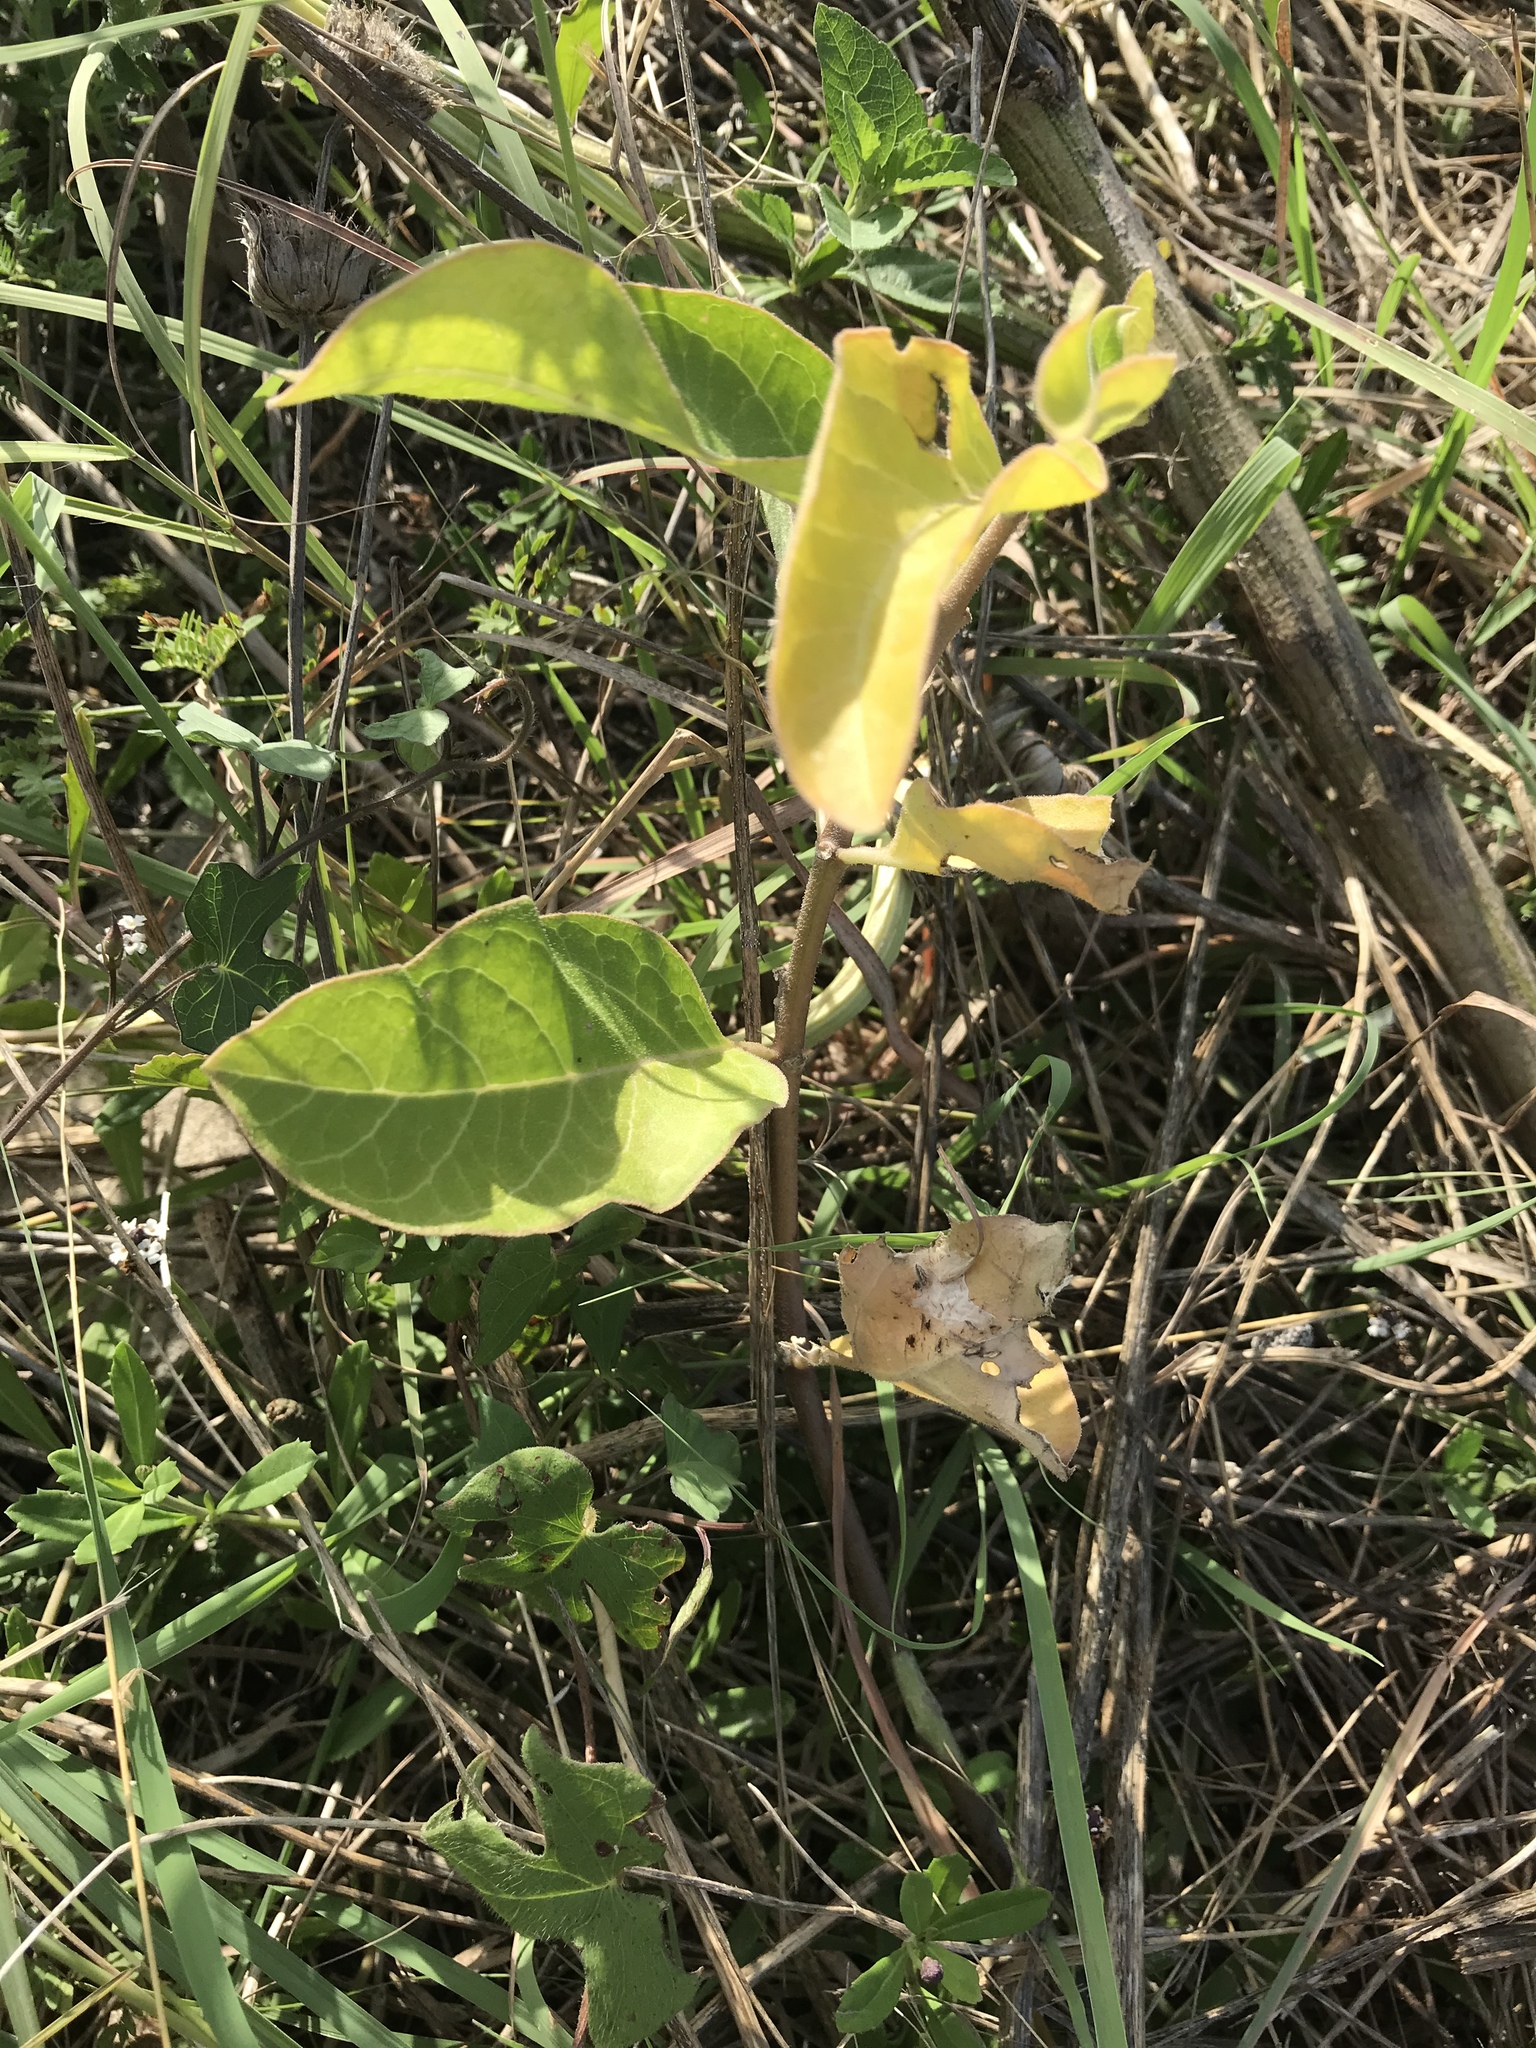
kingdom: Plantae
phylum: Tracheophyta
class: Magnoliopsida
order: Gentianales
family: Apocynaceae
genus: Asclepias
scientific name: Asclepias oenotheroides
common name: Zizotes milkweed
